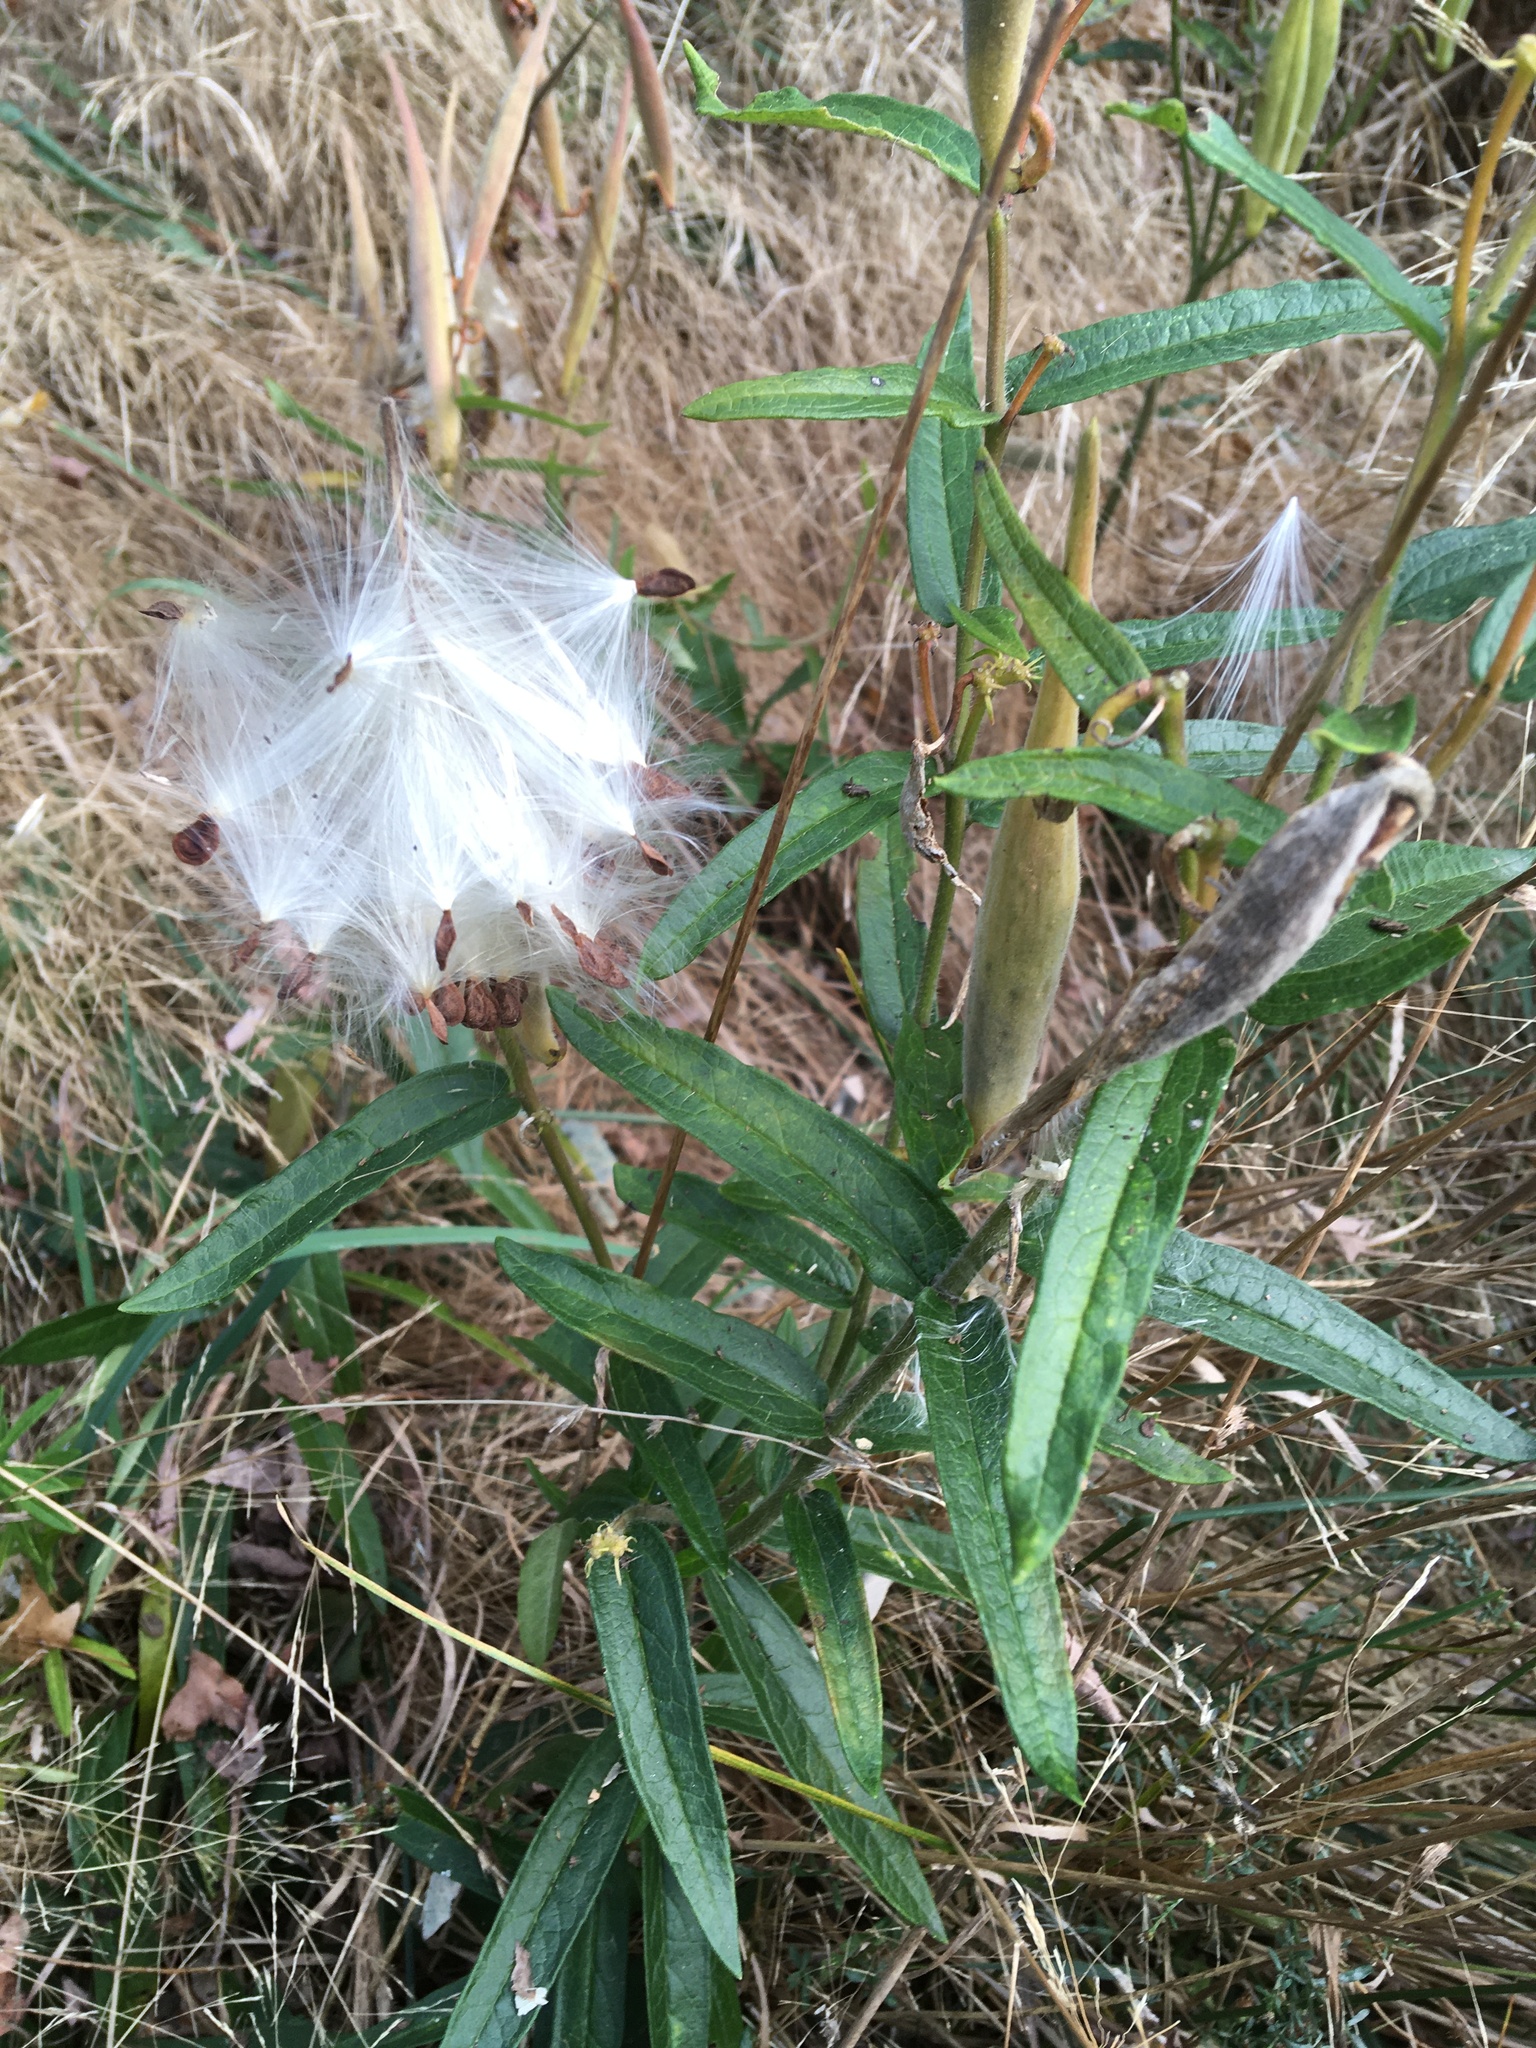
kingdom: Plantae
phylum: Tracheophyta
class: Magnoliopsida
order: Gentianales
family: Apocynaceae
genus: Asclepias
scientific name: Asclepias tuberosa
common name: Butterfly milkweed
